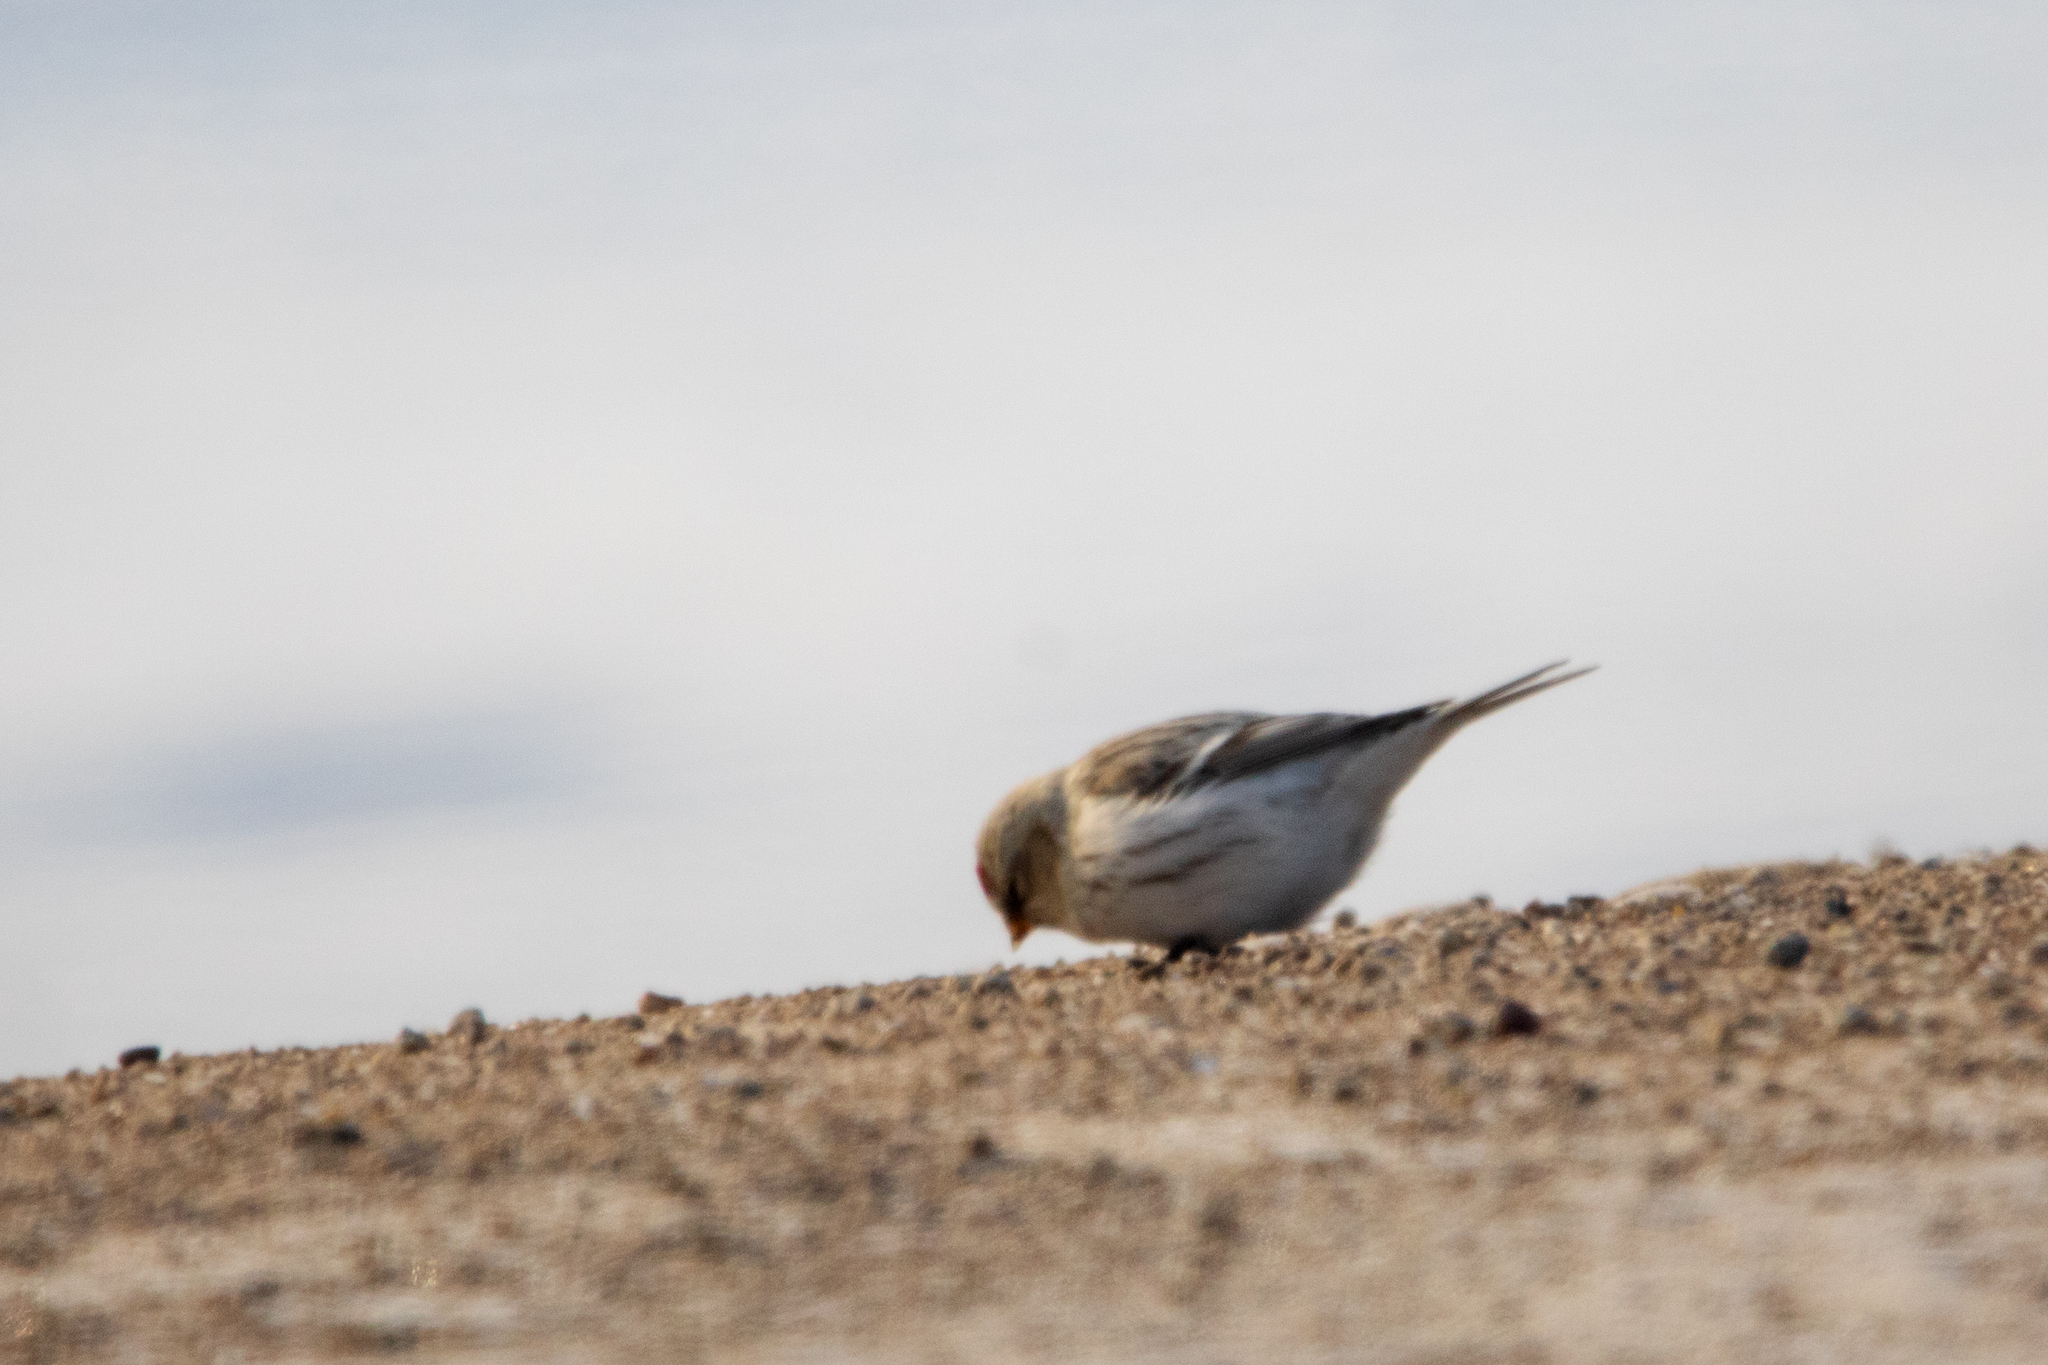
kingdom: Animalia
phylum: Chordata
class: Aves
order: Passeriformes
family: Fringillidae
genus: Acanthis
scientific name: Acanthis hornemanni
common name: Arctic redpoll
